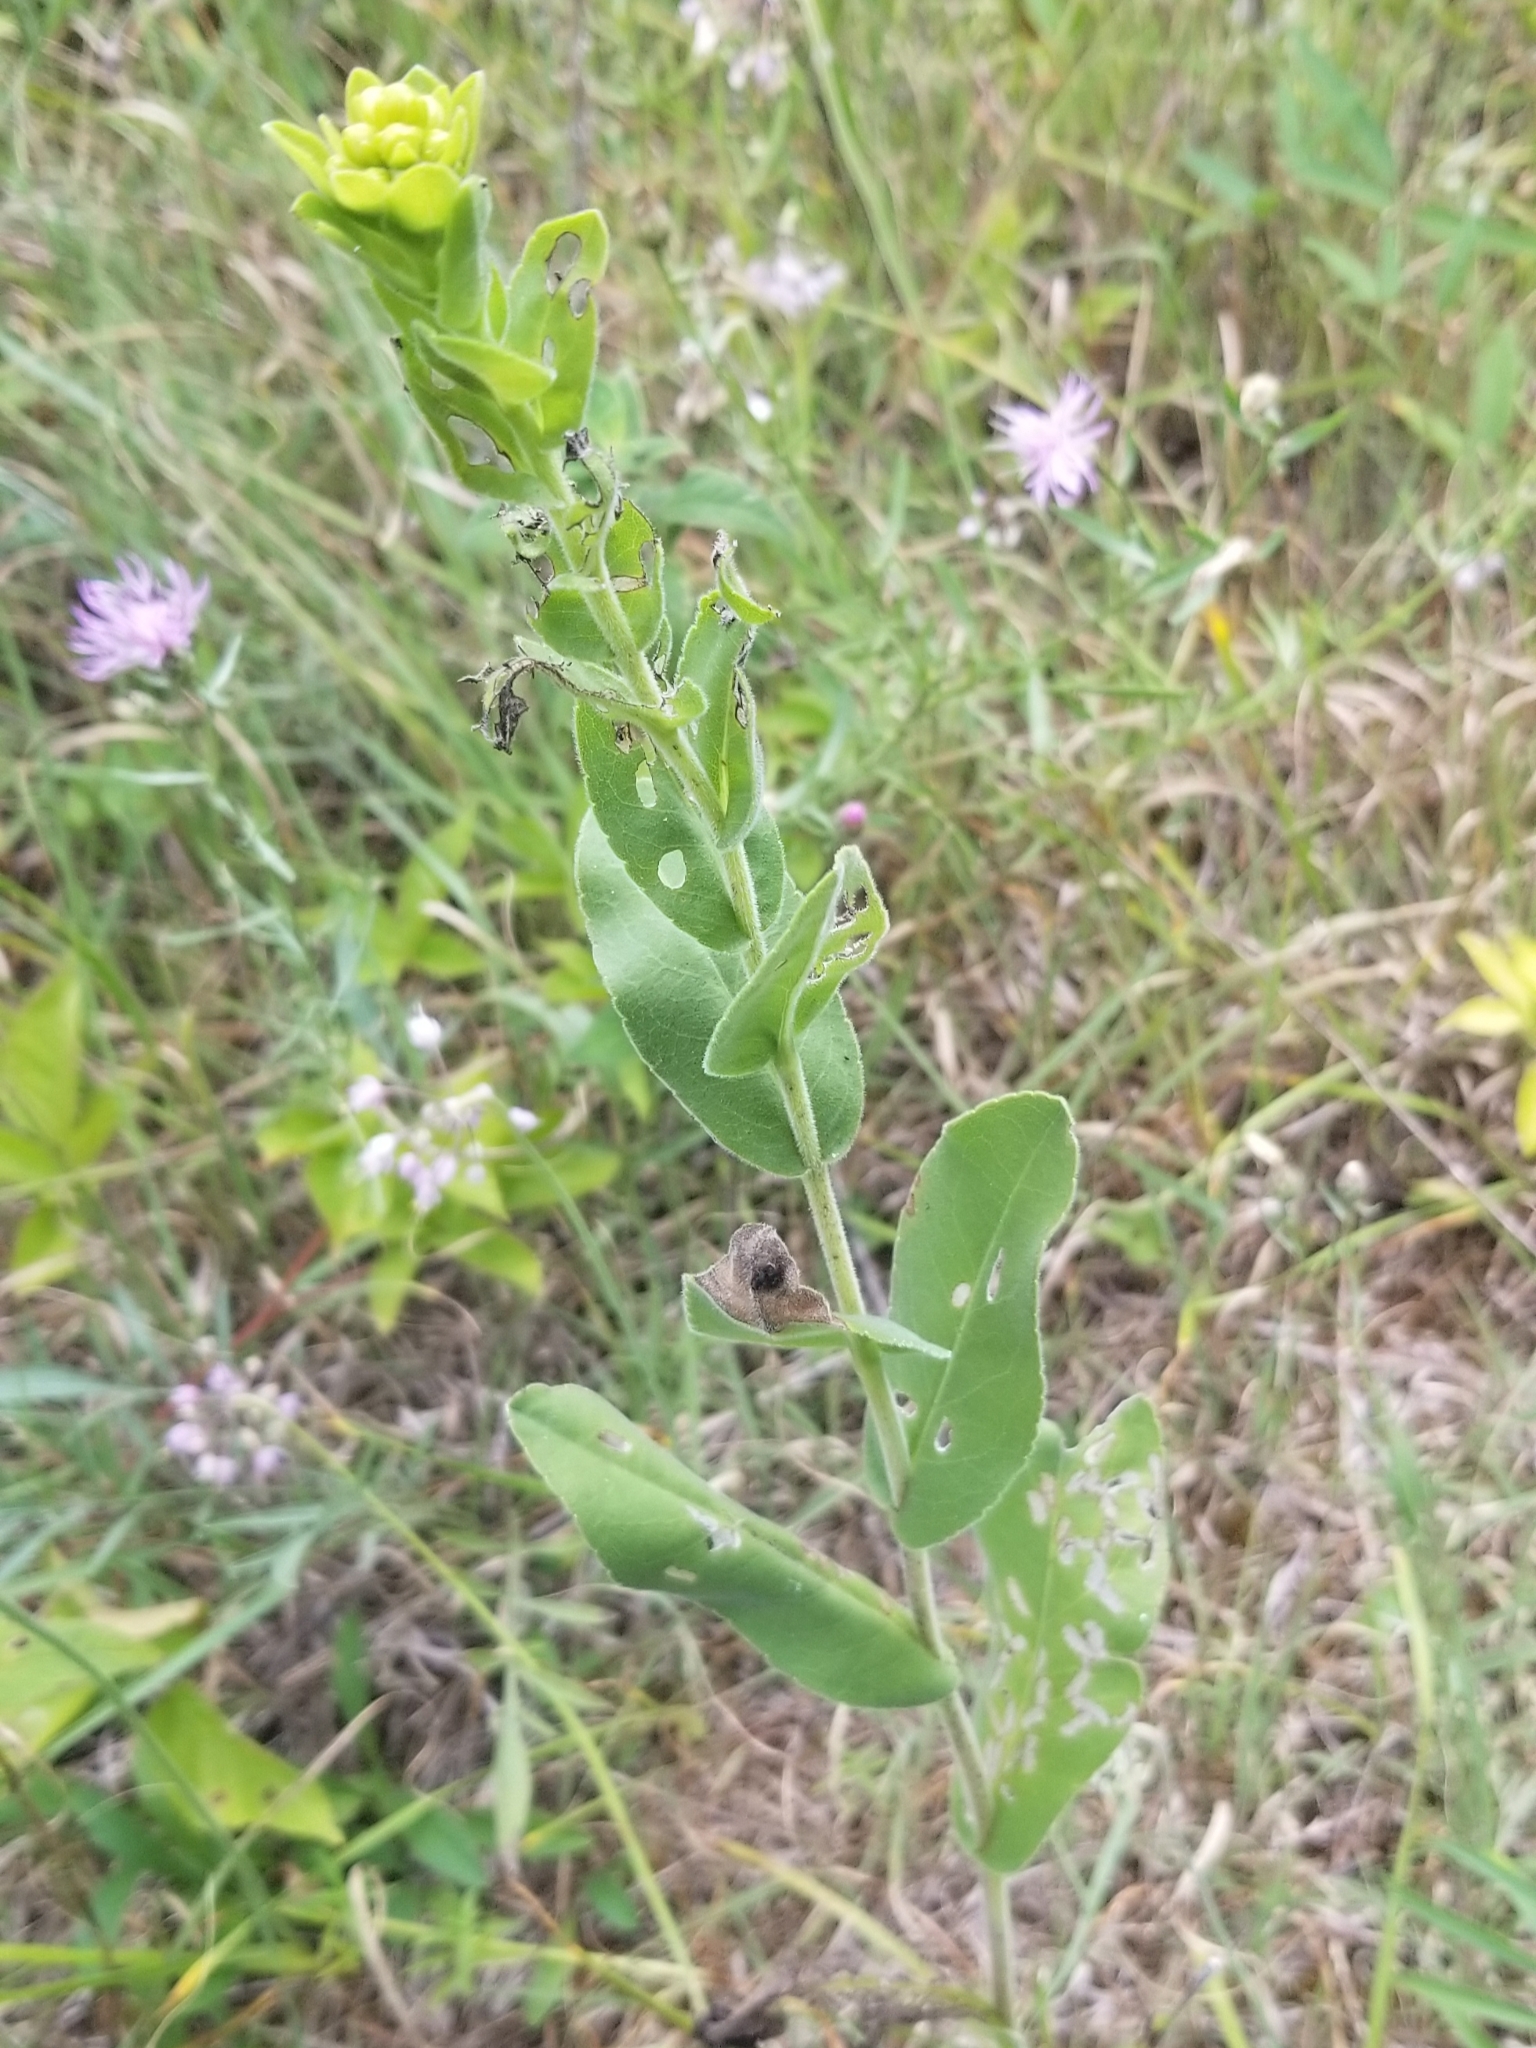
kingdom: Plantae
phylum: Tracheophyta
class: Magnoliopsida
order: Asterales
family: Asteraceae
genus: Solidago
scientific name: Solidago rigida
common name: Rigid goldenrod
